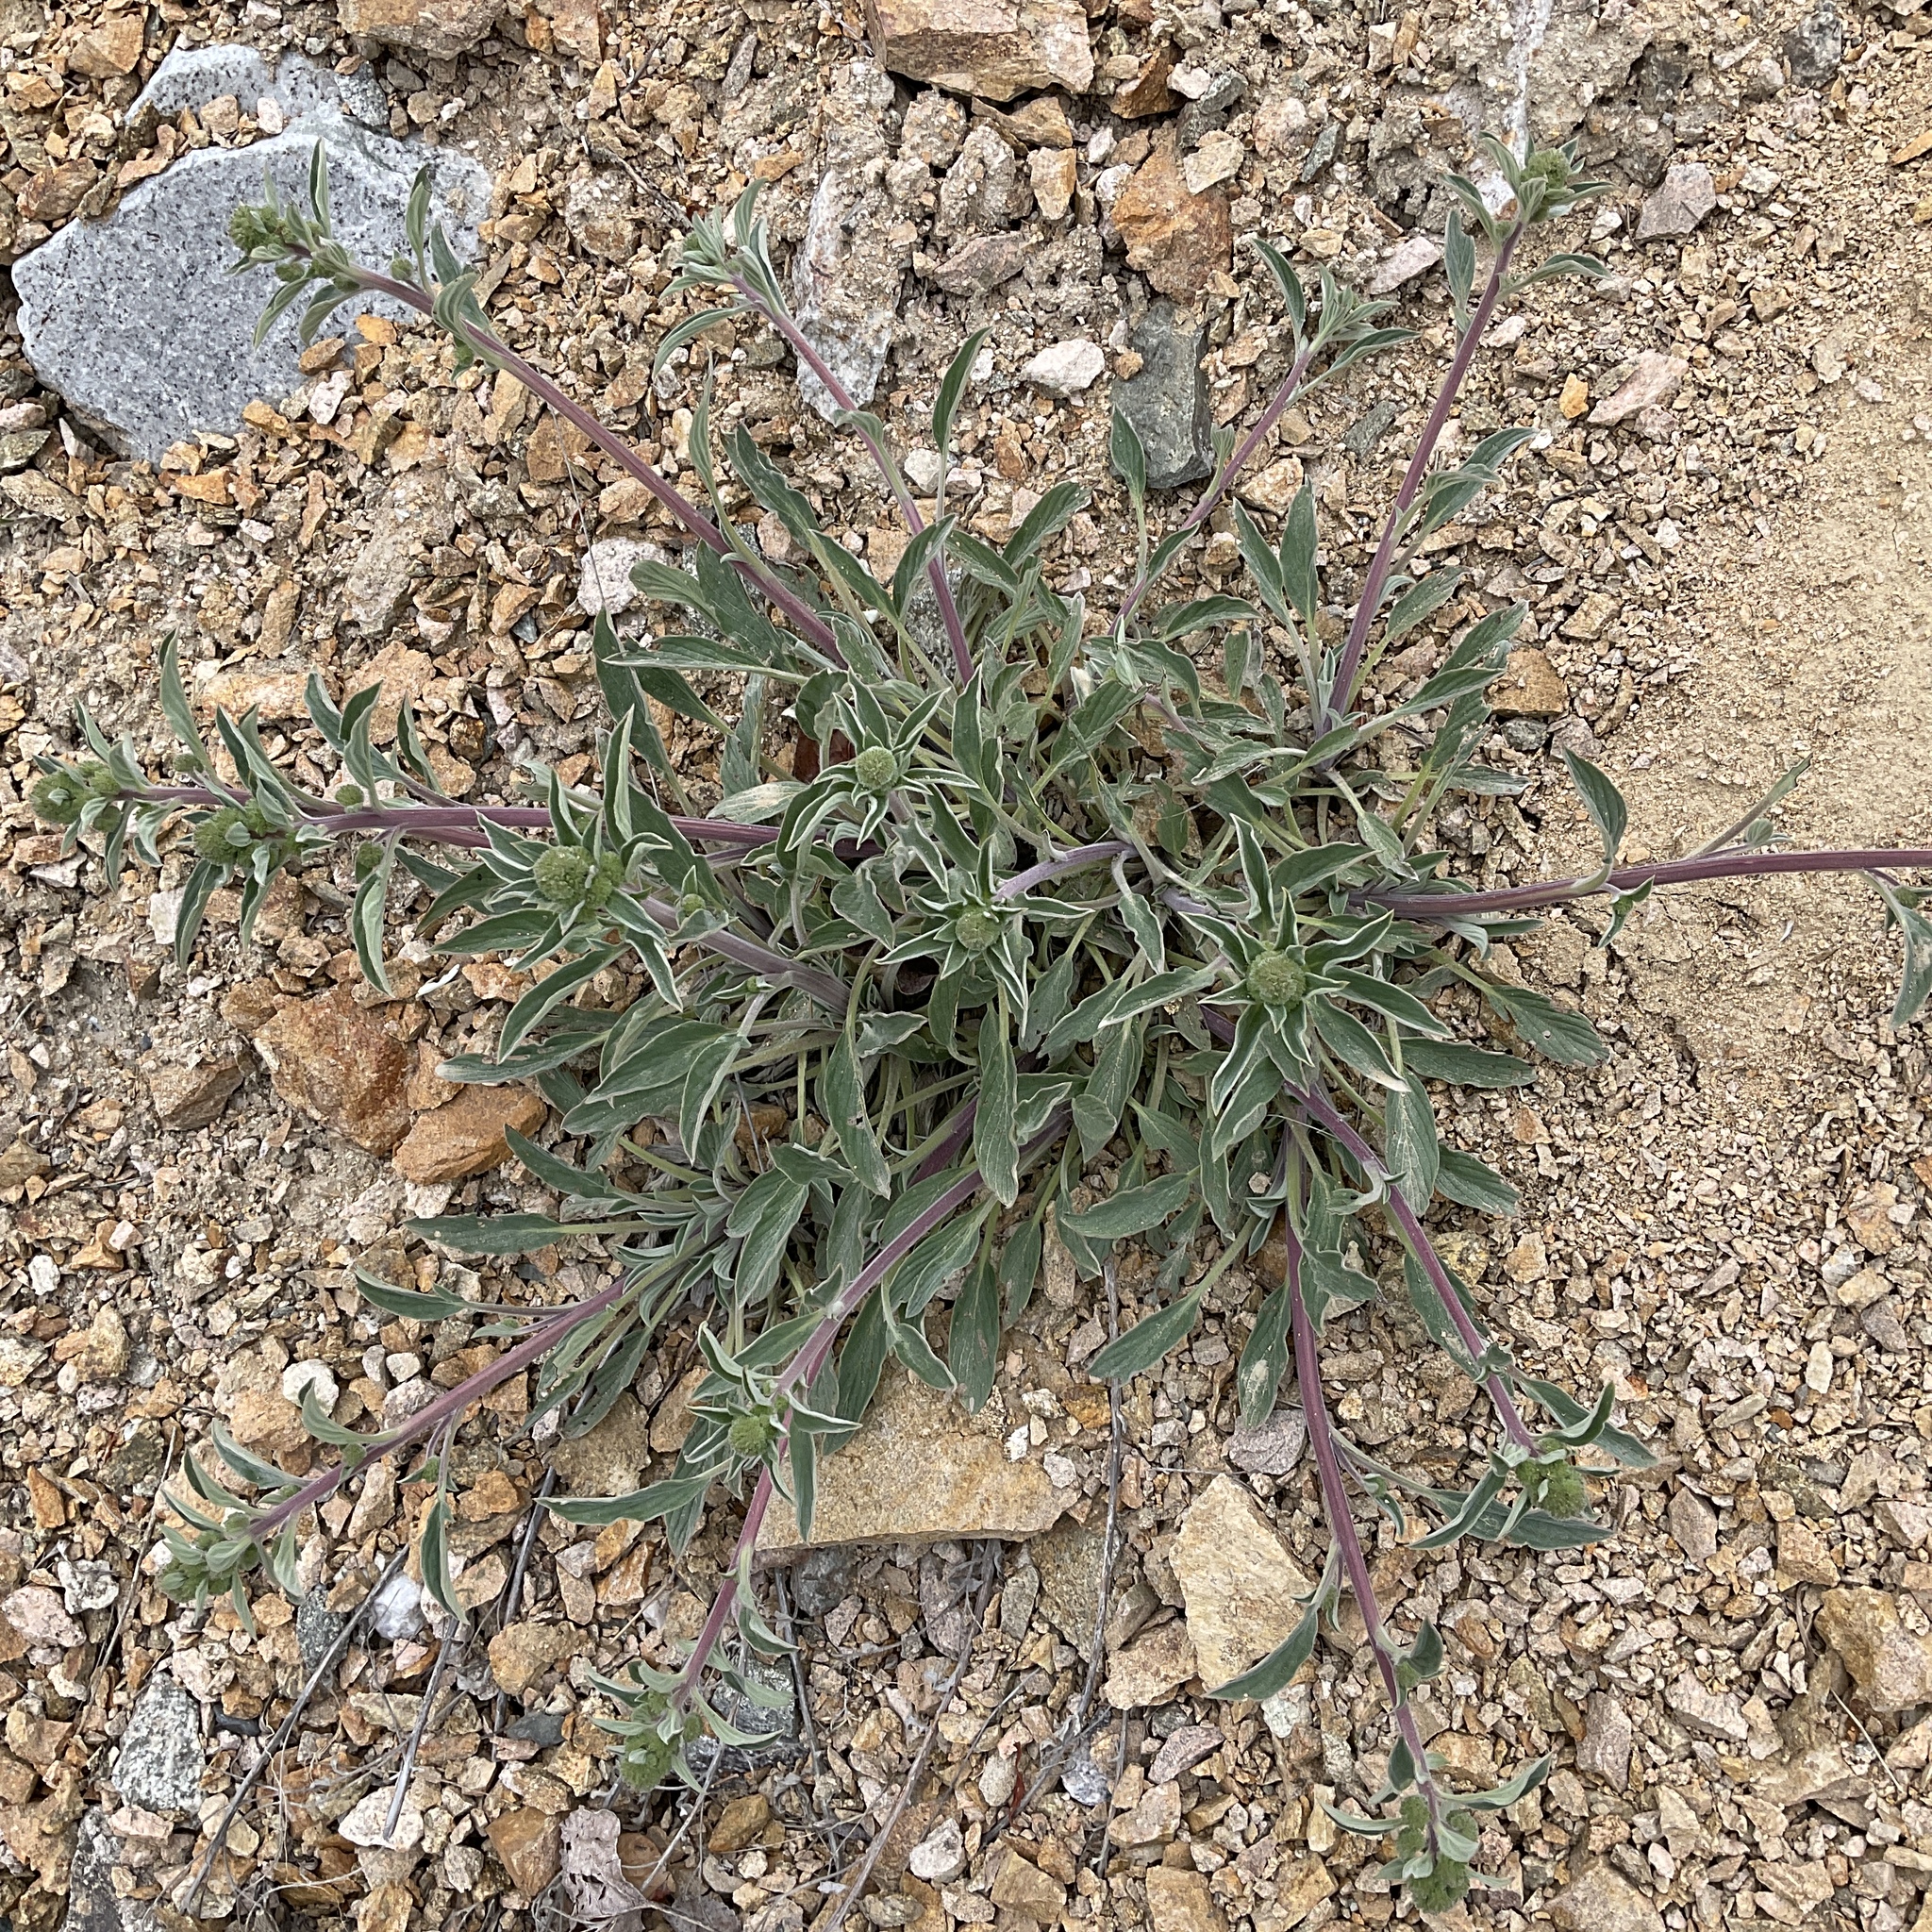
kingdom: Plantae
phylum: Tracheophyta
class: Magnoliopsida
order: Boraginales
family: Hydrophyllaceae
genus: Phacelia
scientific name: Phacelia hastata
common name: Silver-leaved phacelia
